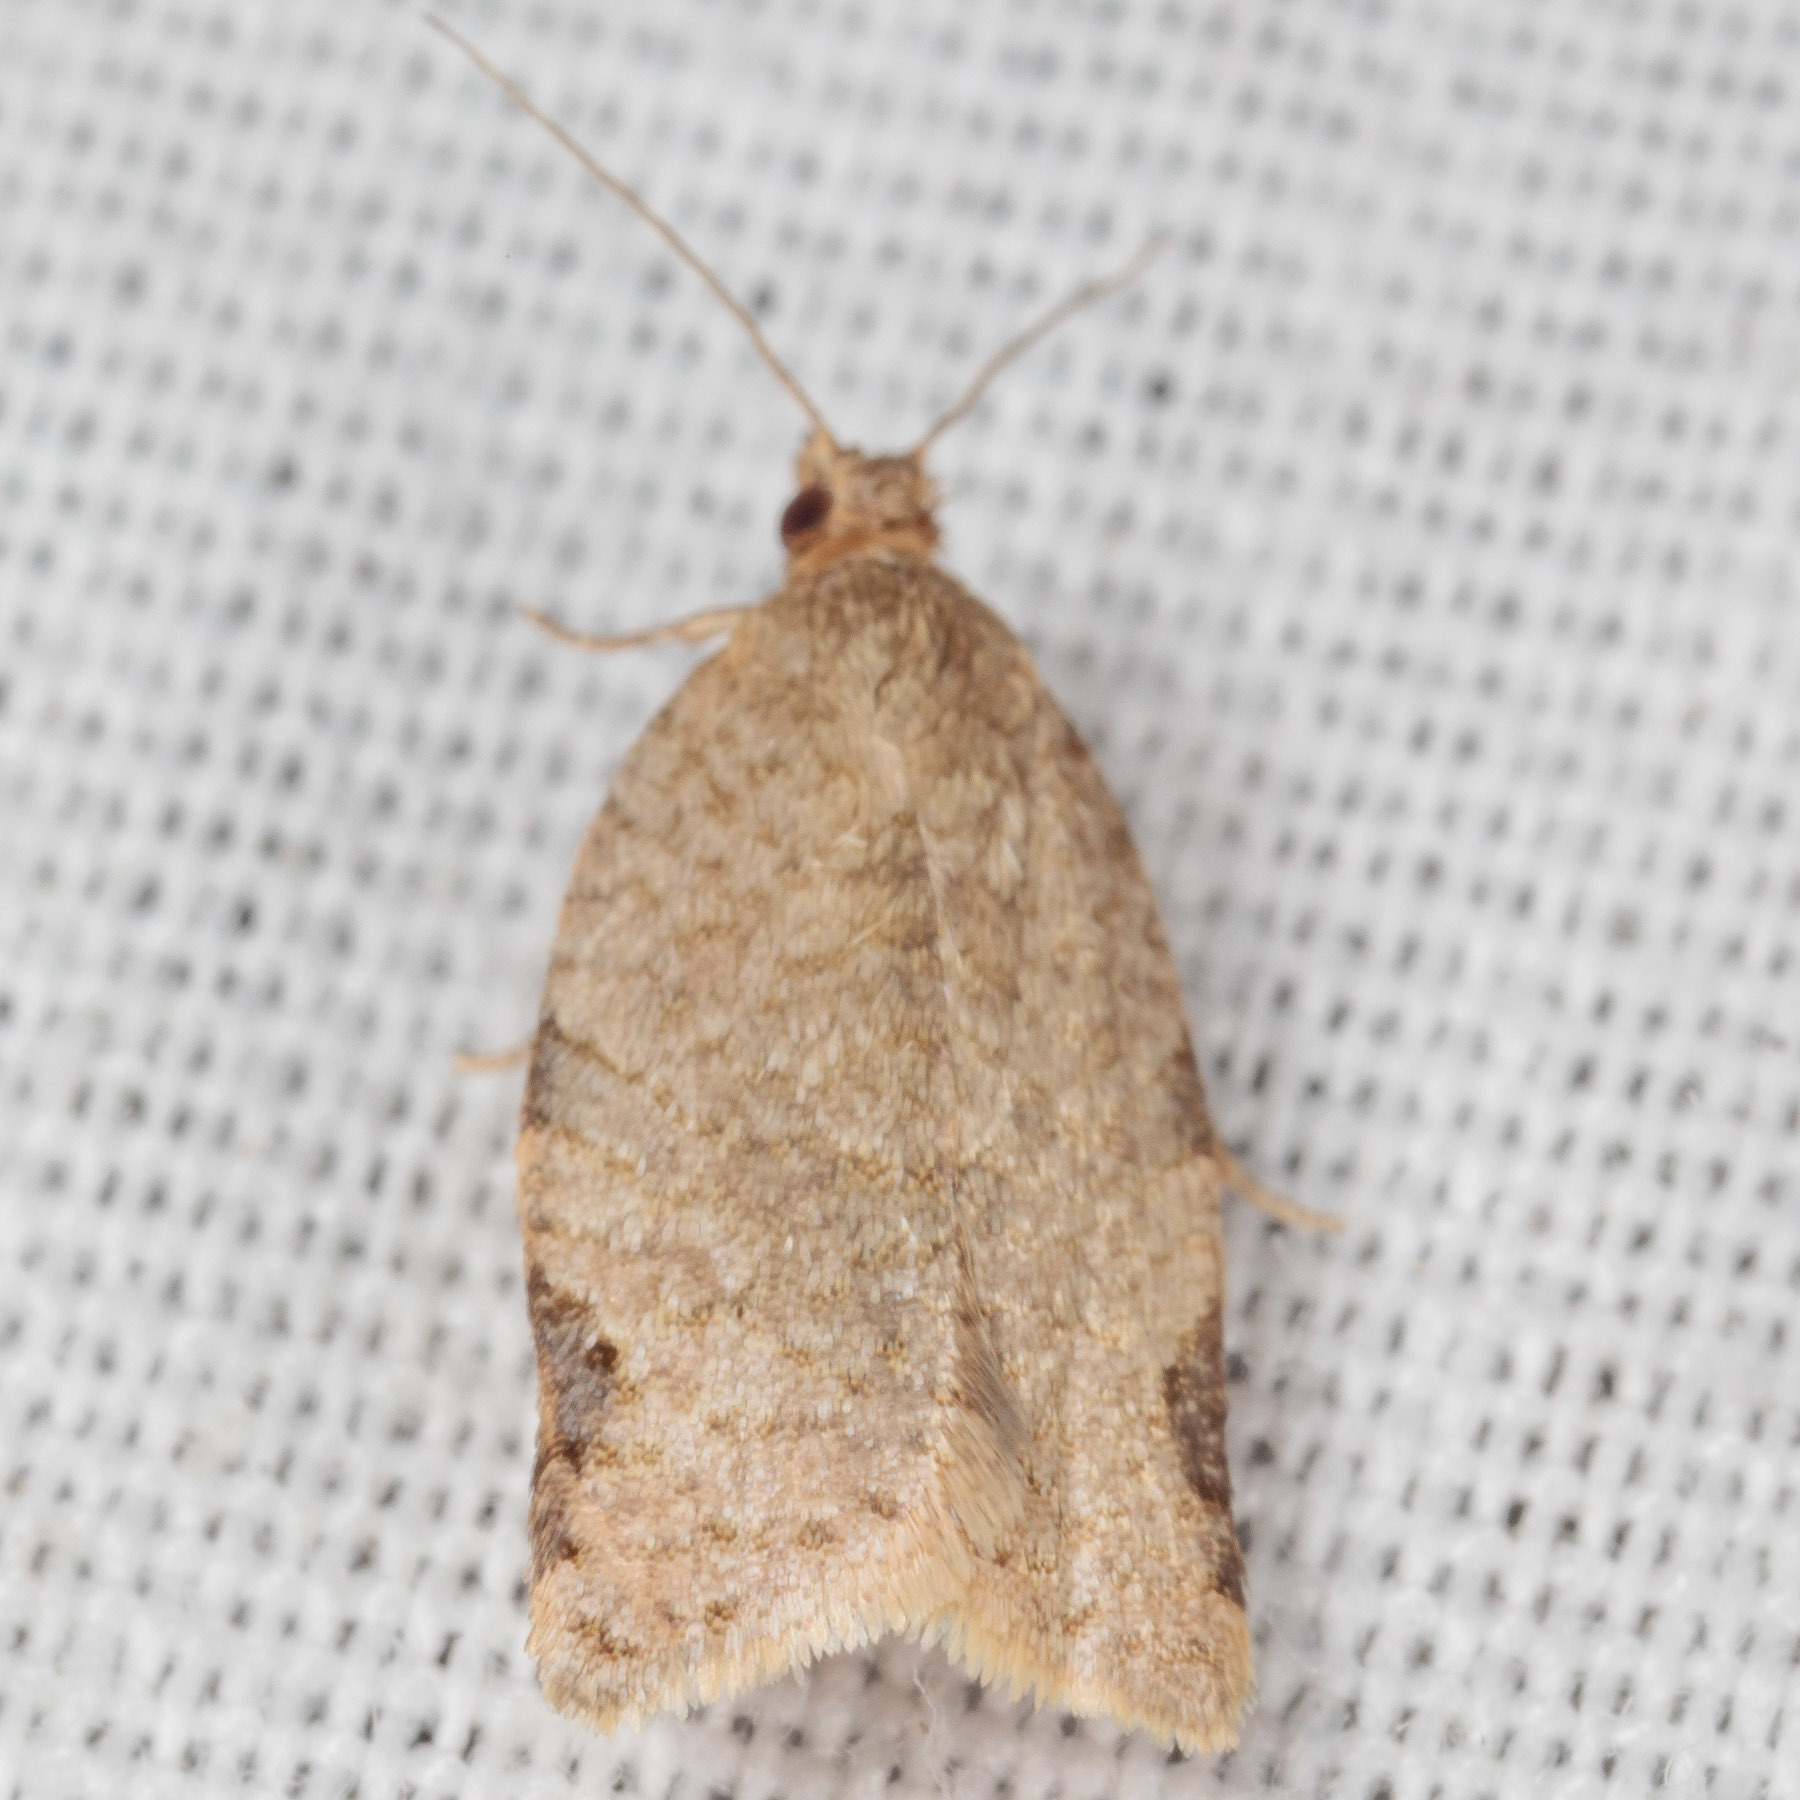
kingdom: Animalia
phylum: Arthropoda
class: Insecta
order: Lepidoptera
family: Tortricidae
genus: Clepsis
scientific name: Clepsis virescana
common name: Greenish apple moth
